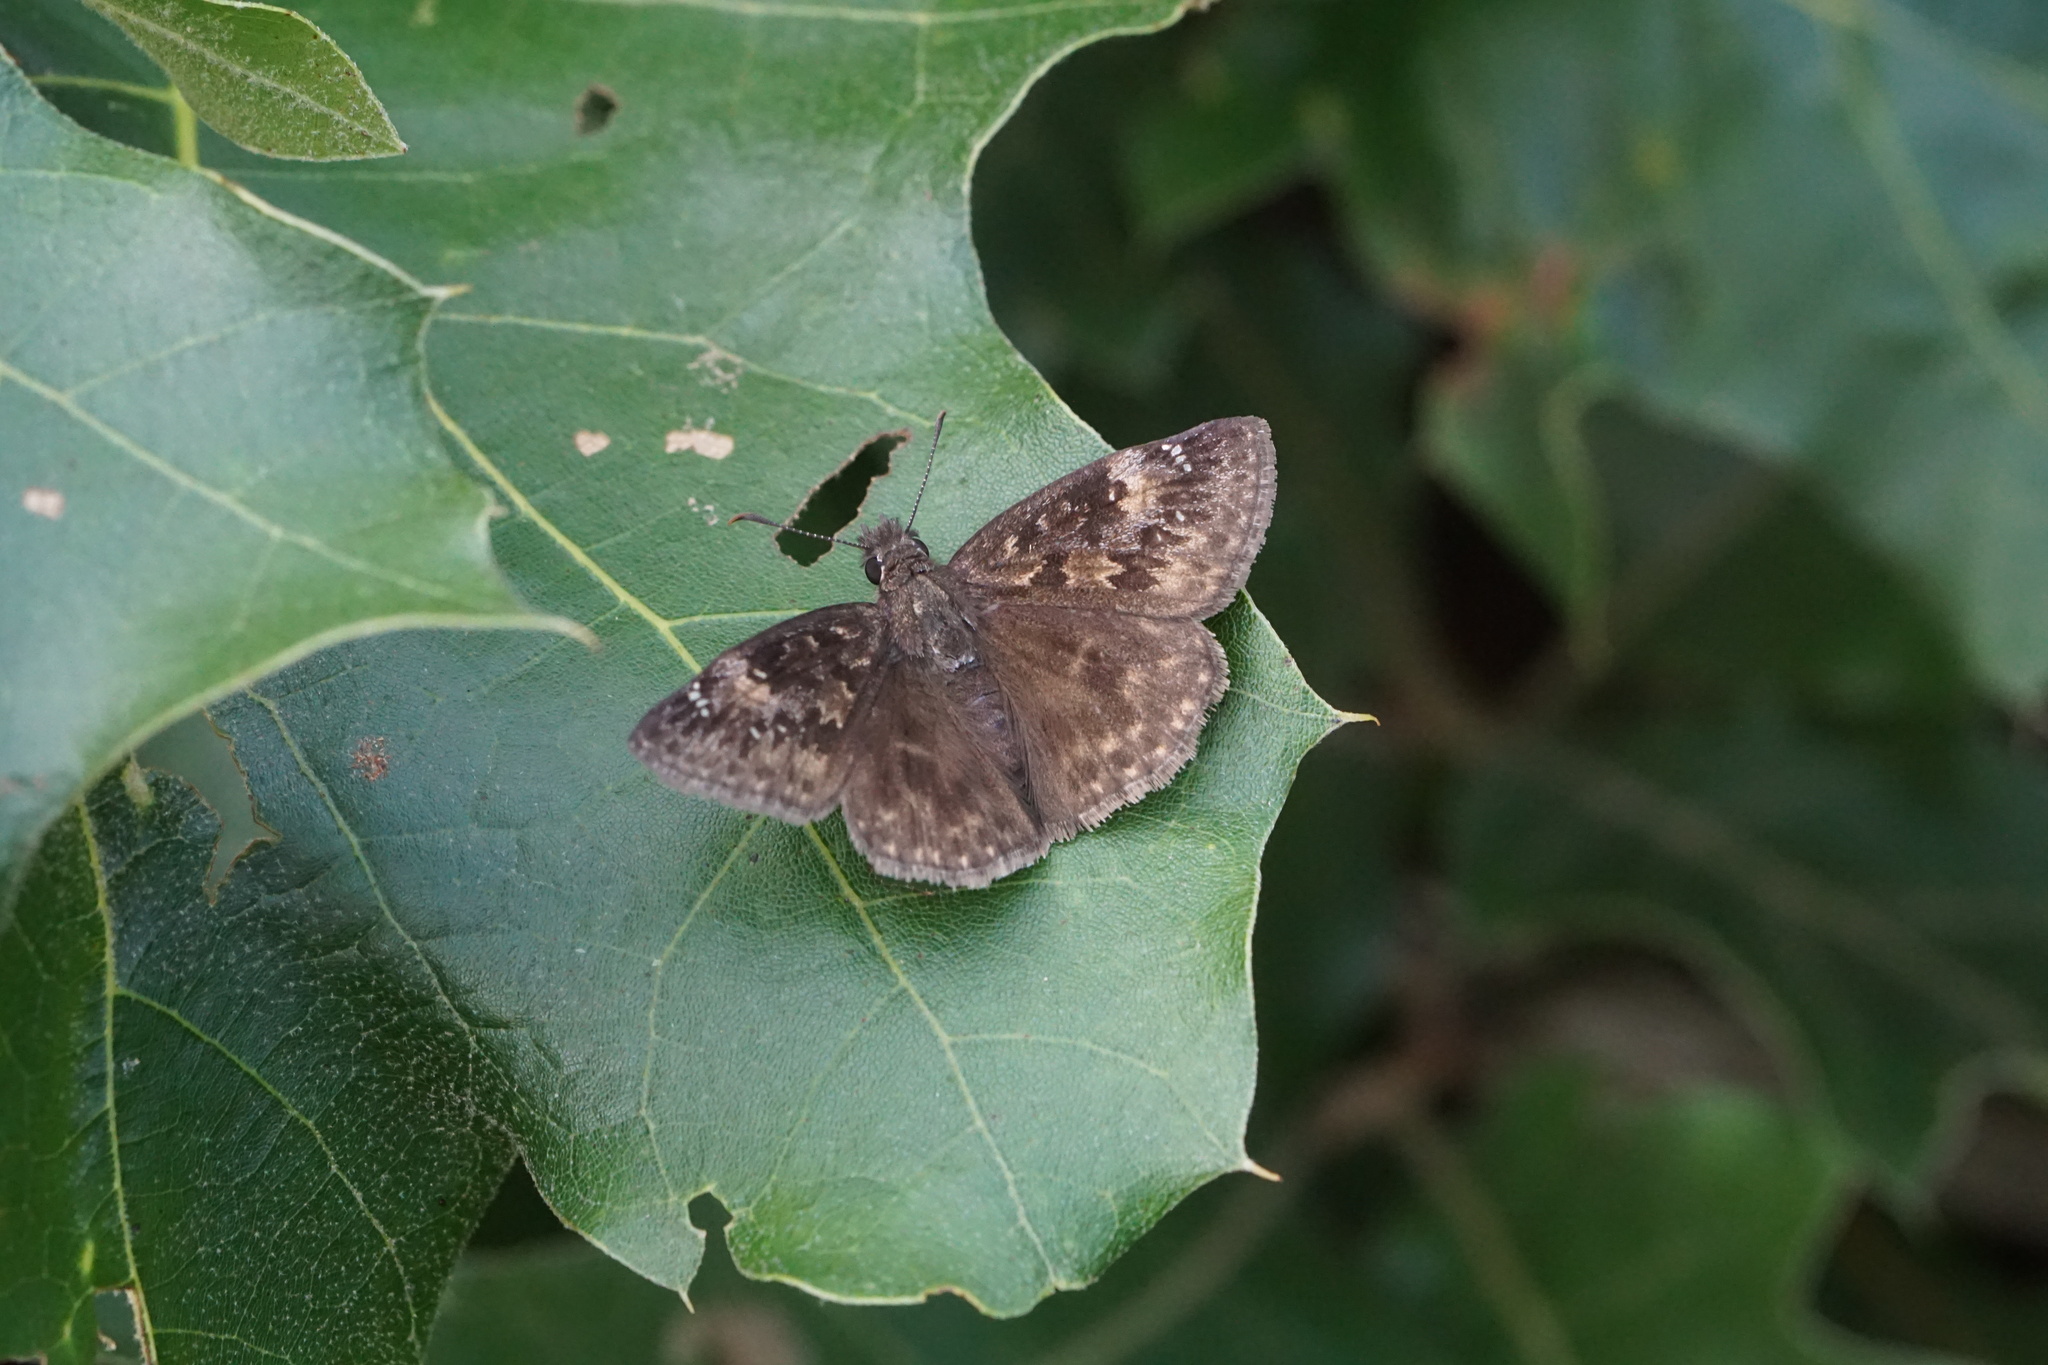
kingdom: Animalia
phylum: Arthropoda
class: Insecta
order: Lepidoptera
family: Hesperiidae
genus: Erynnis
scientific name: Erynnis baptisiae
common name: Wild indigo duskywing
